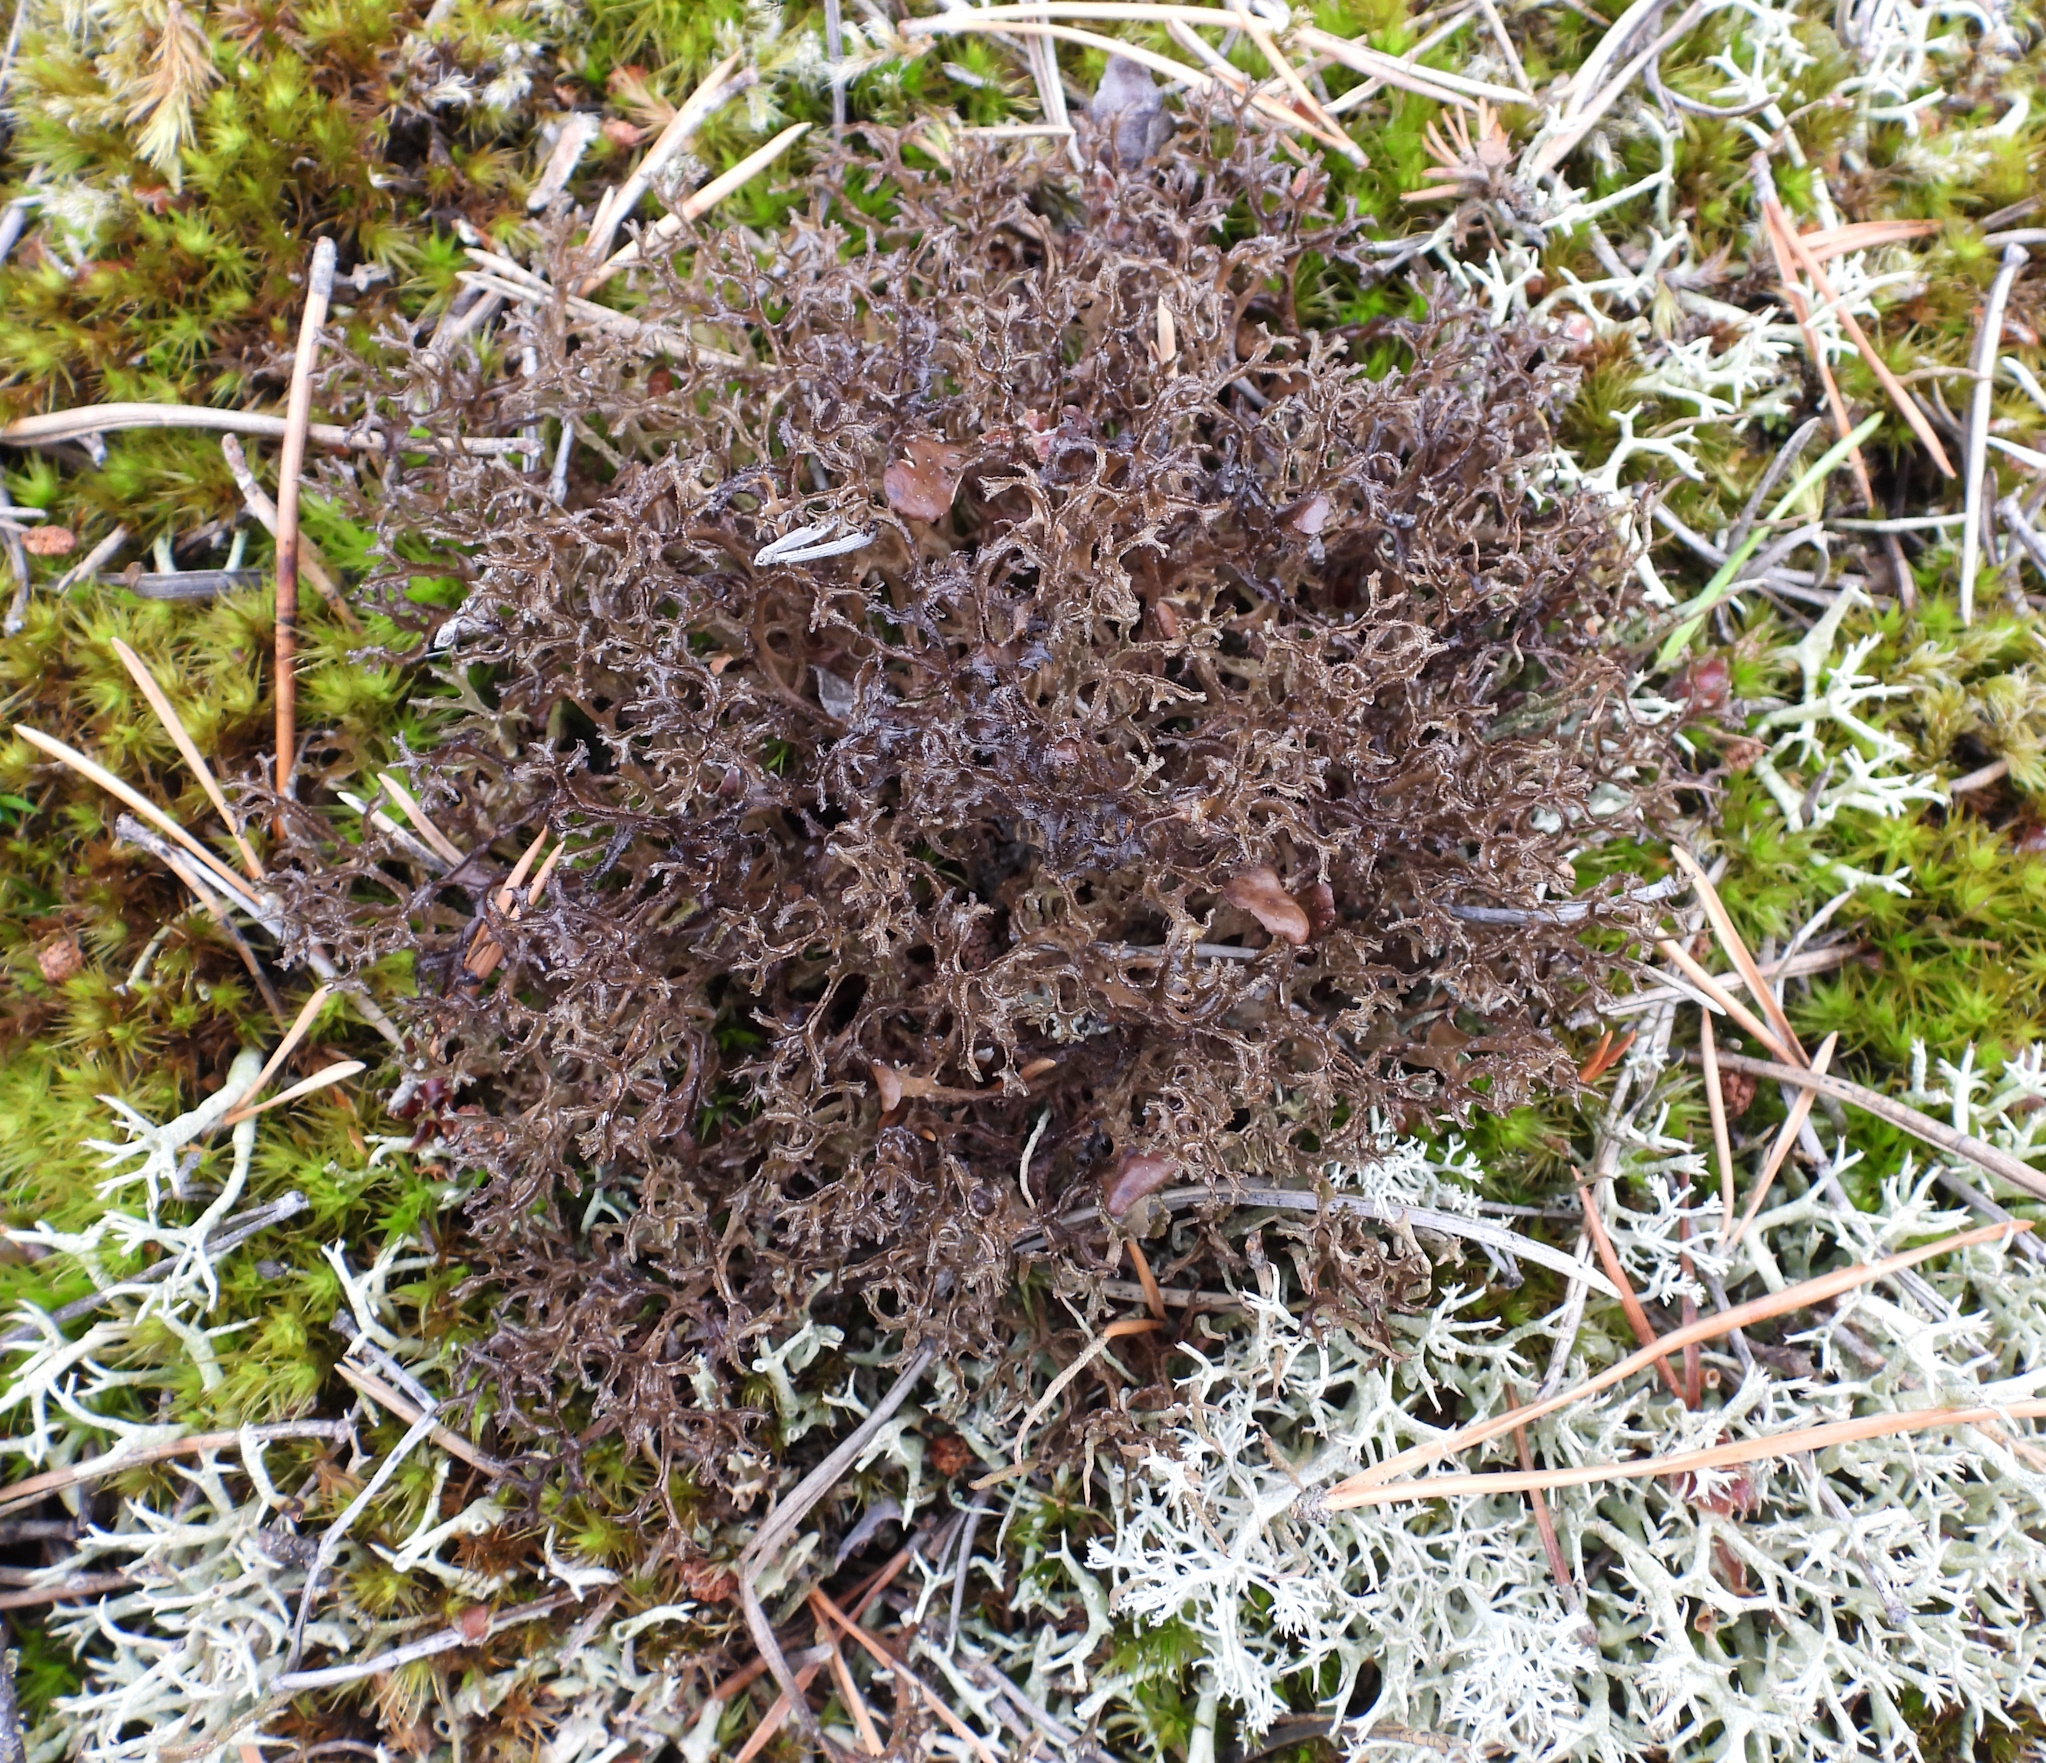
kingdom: Fungi
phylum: Ascomycota
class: Lecanoromycetes
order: Lecanorales
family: Parmeliaceae
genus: Cetraria
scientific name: Cetraria ericetorum
